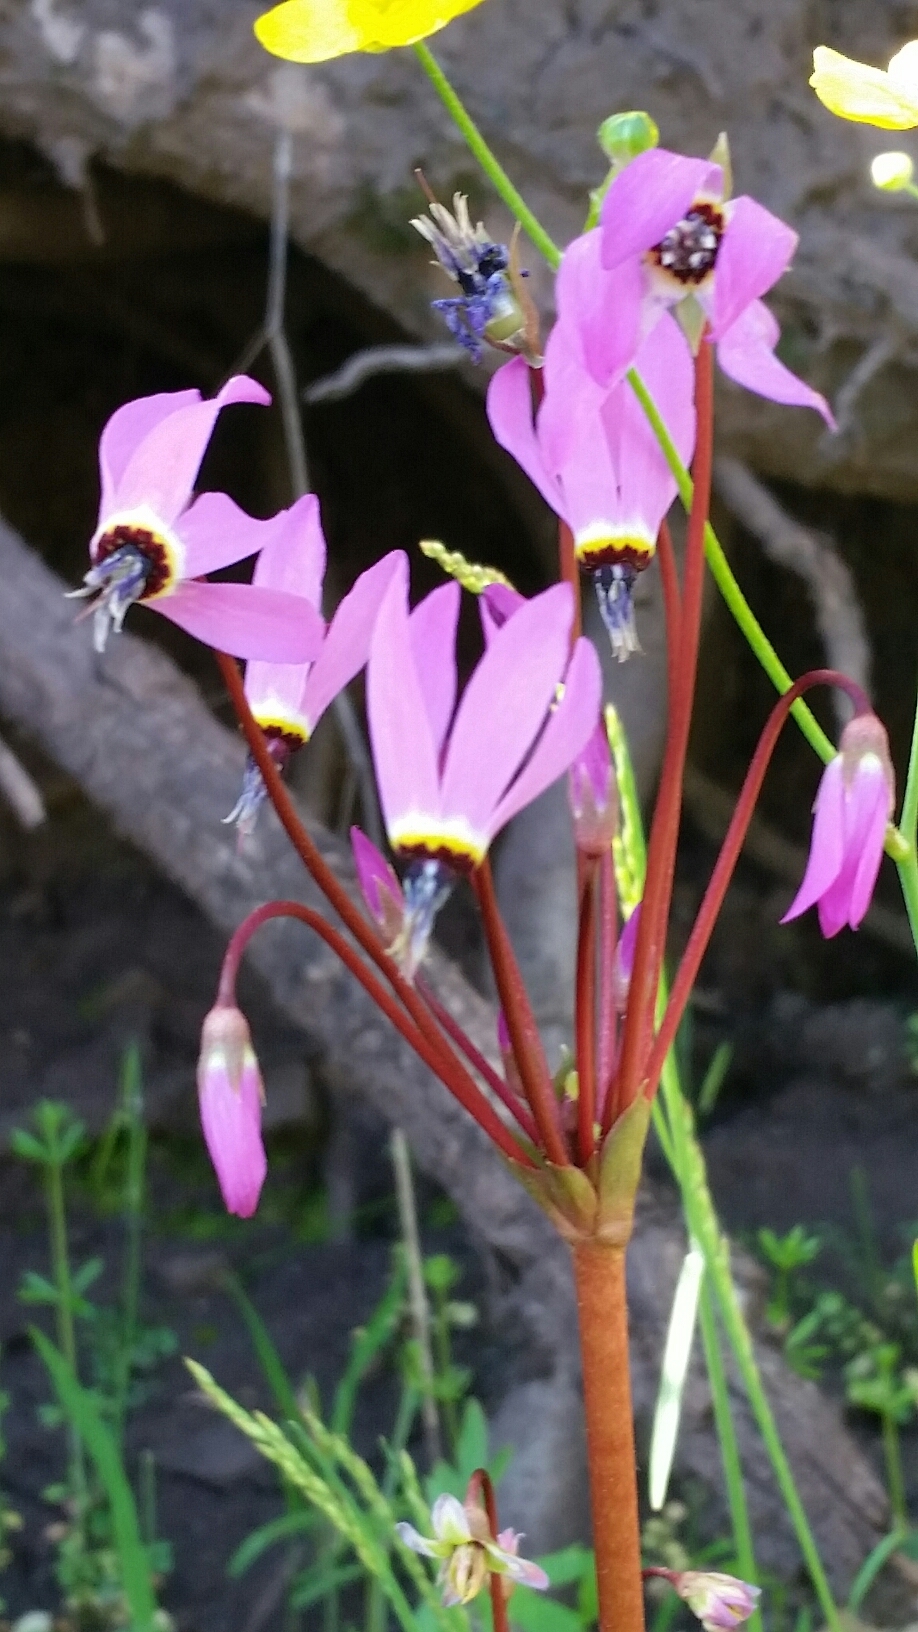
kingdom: Plantae
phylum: Tracheophyta
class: Magnoliopsida
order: Ericales
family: Primulaceae
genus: Dodecatheon
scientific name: Dodecatheon hendersonii
